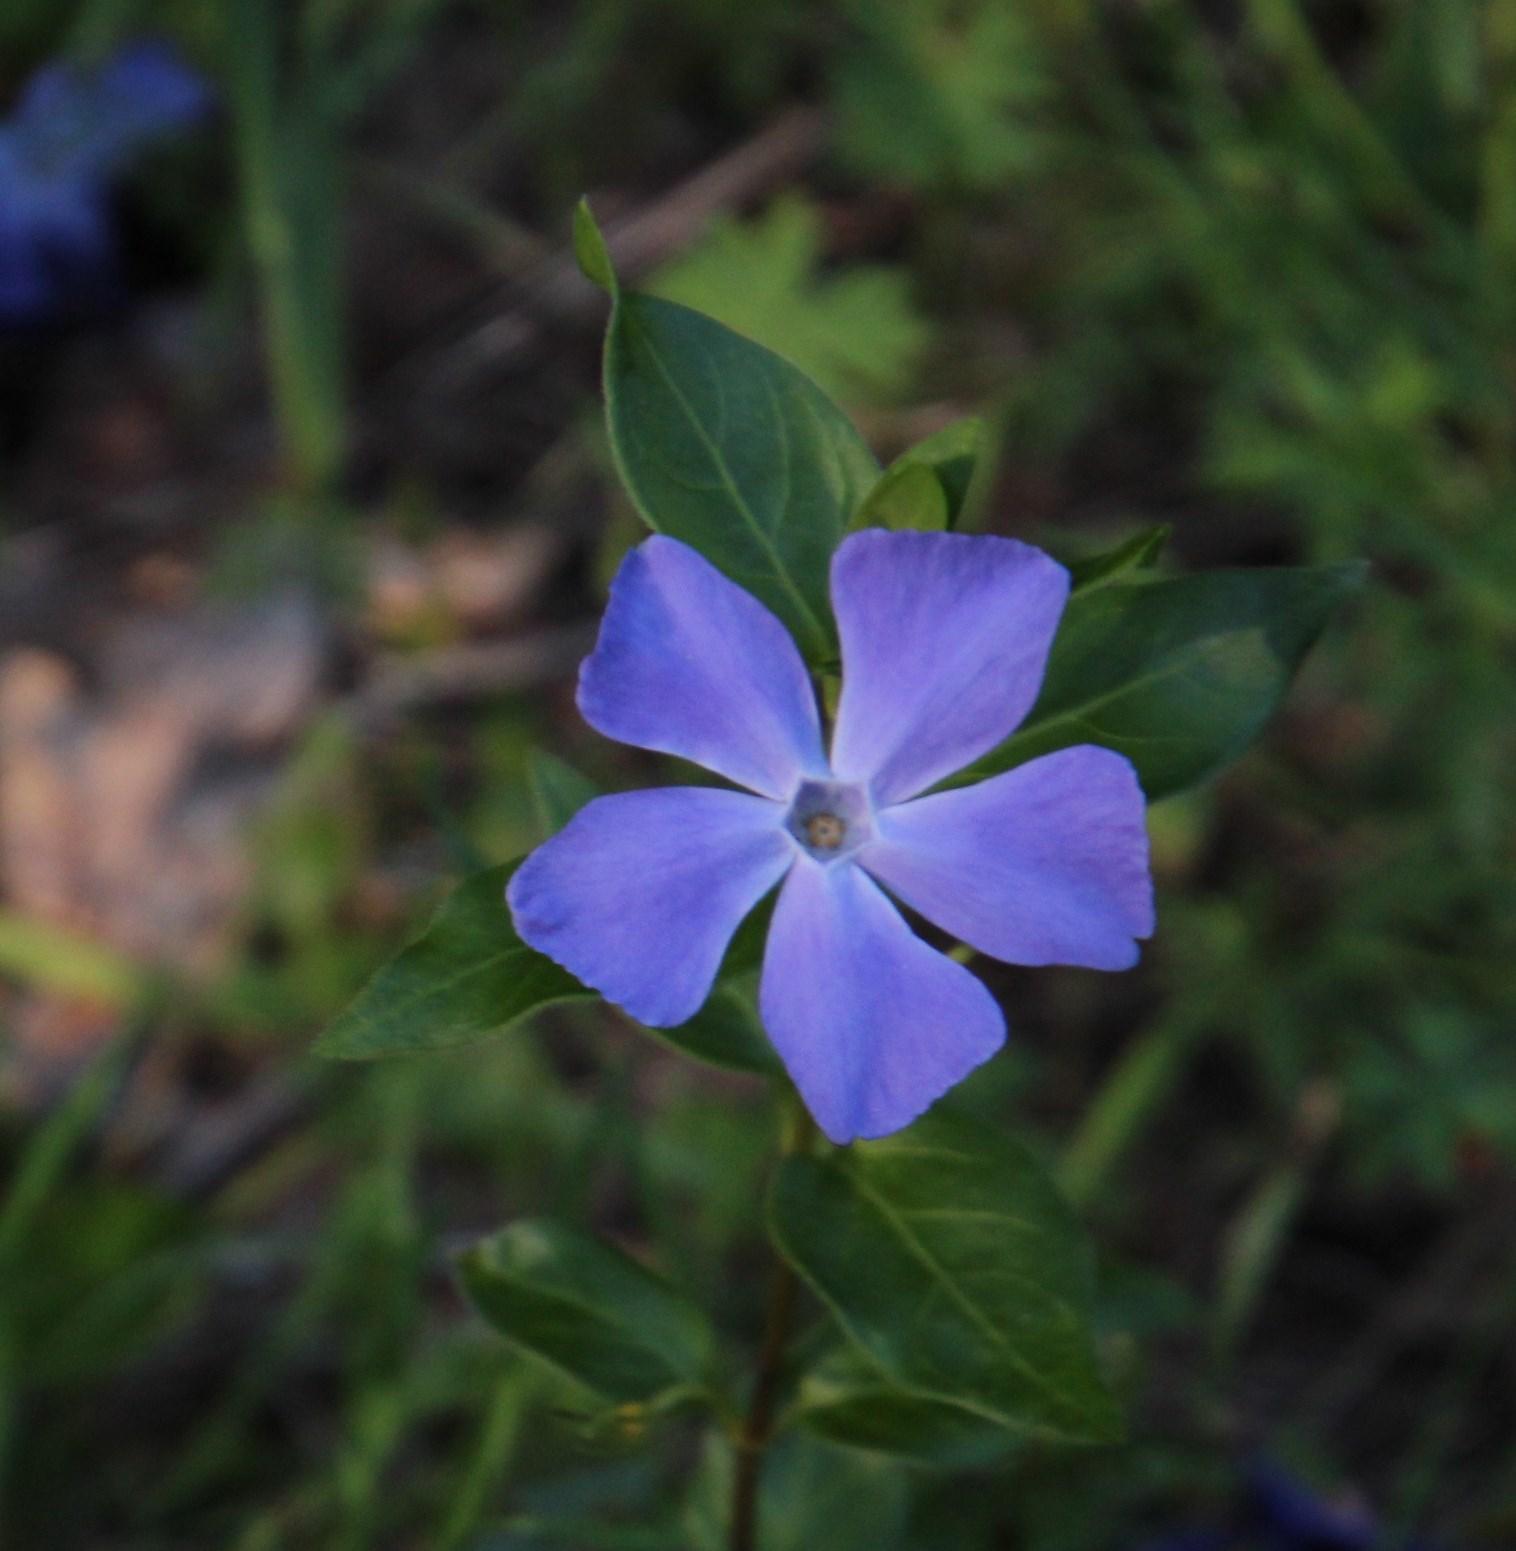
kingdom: Plantae
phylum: Tracheophyta
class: Magnoliopsida
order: Gentianales
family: Apocynaceae
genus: Vinca
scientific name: Vinca major
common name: Greater periwinkle
